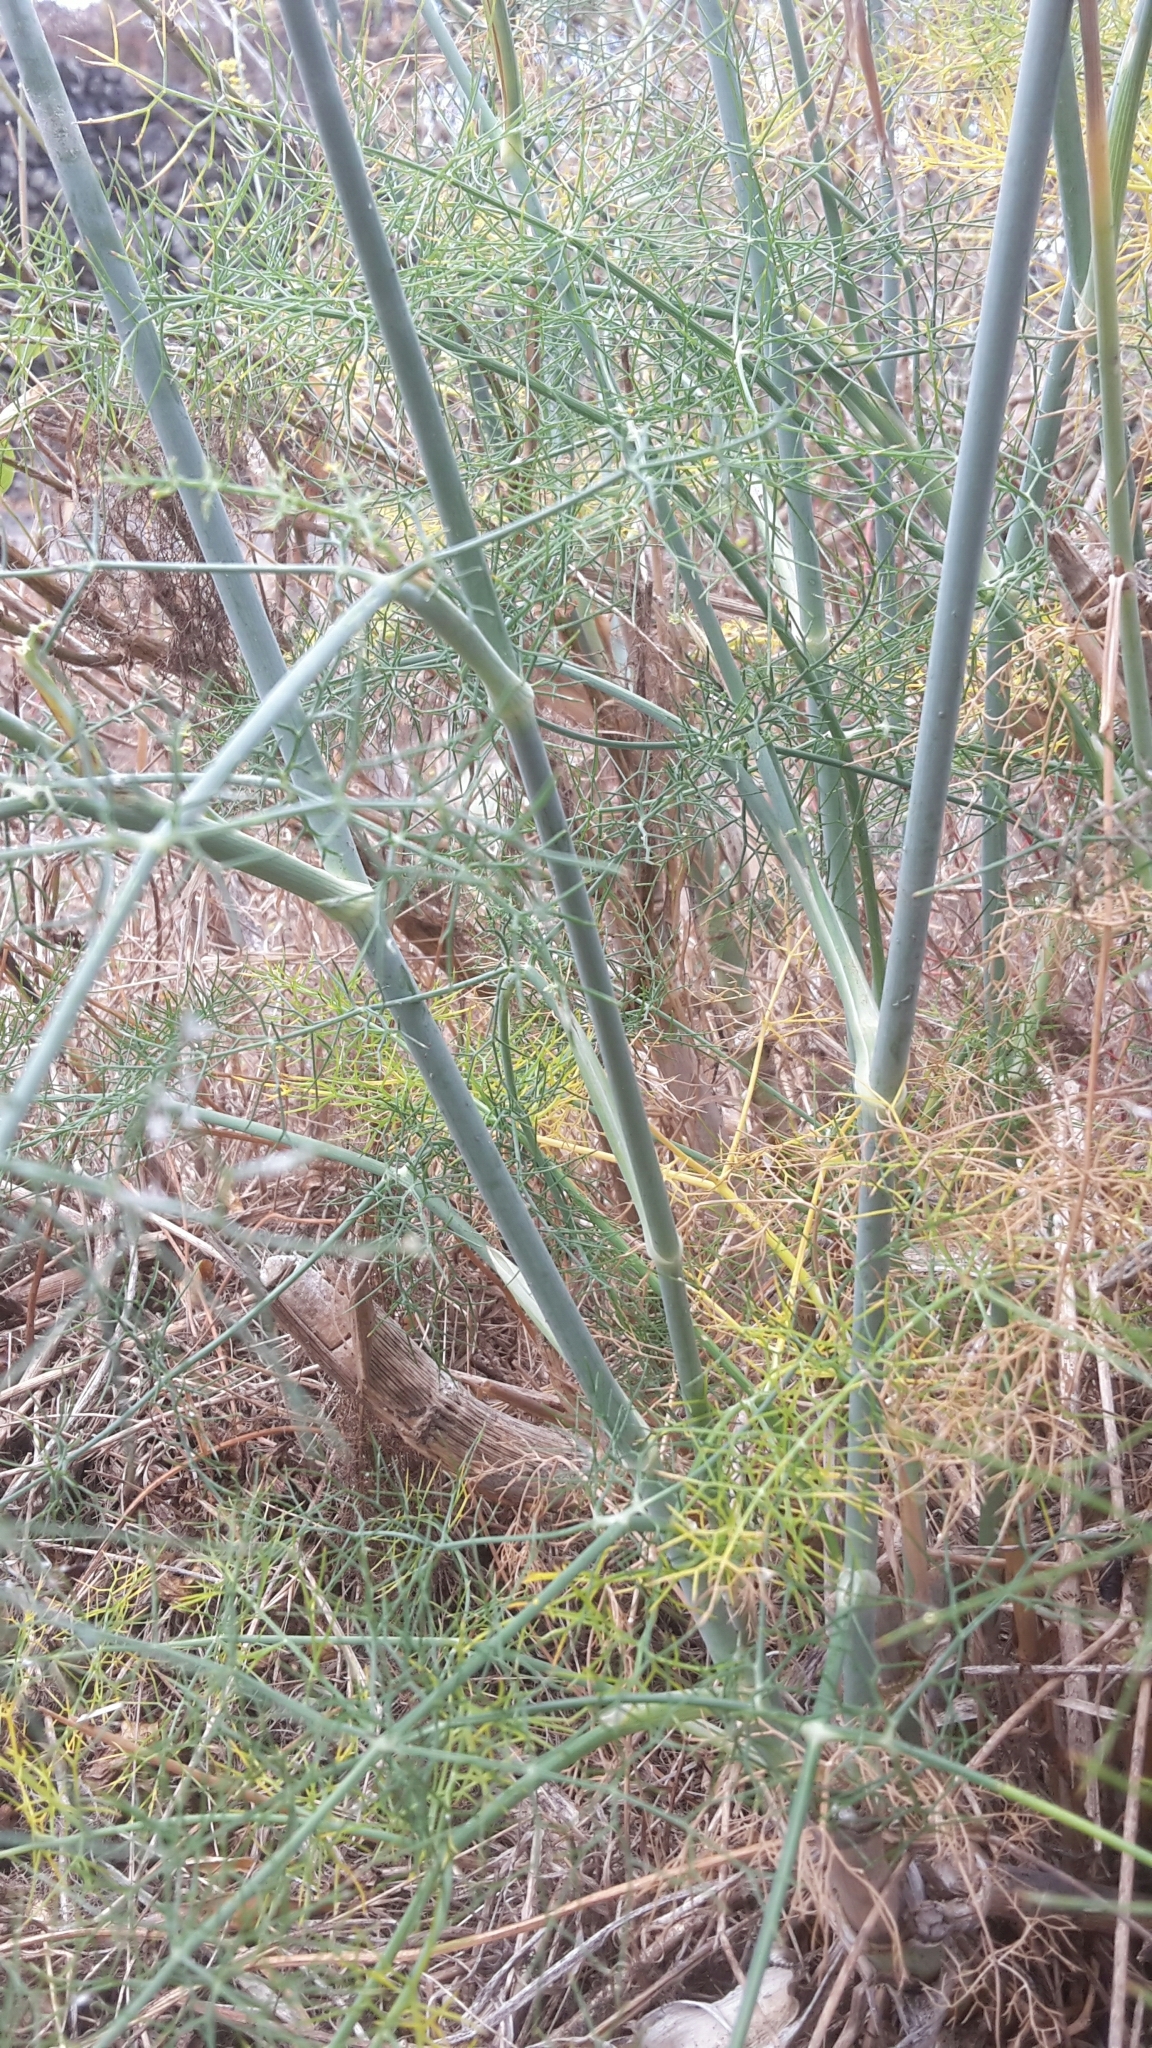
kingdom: Plantae
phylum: Tracheophyta
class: Magnoliopsida
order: Apiales
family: Apiaceae
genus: Foeniculum
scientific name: Foeniculum vulgare
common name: Fennel
